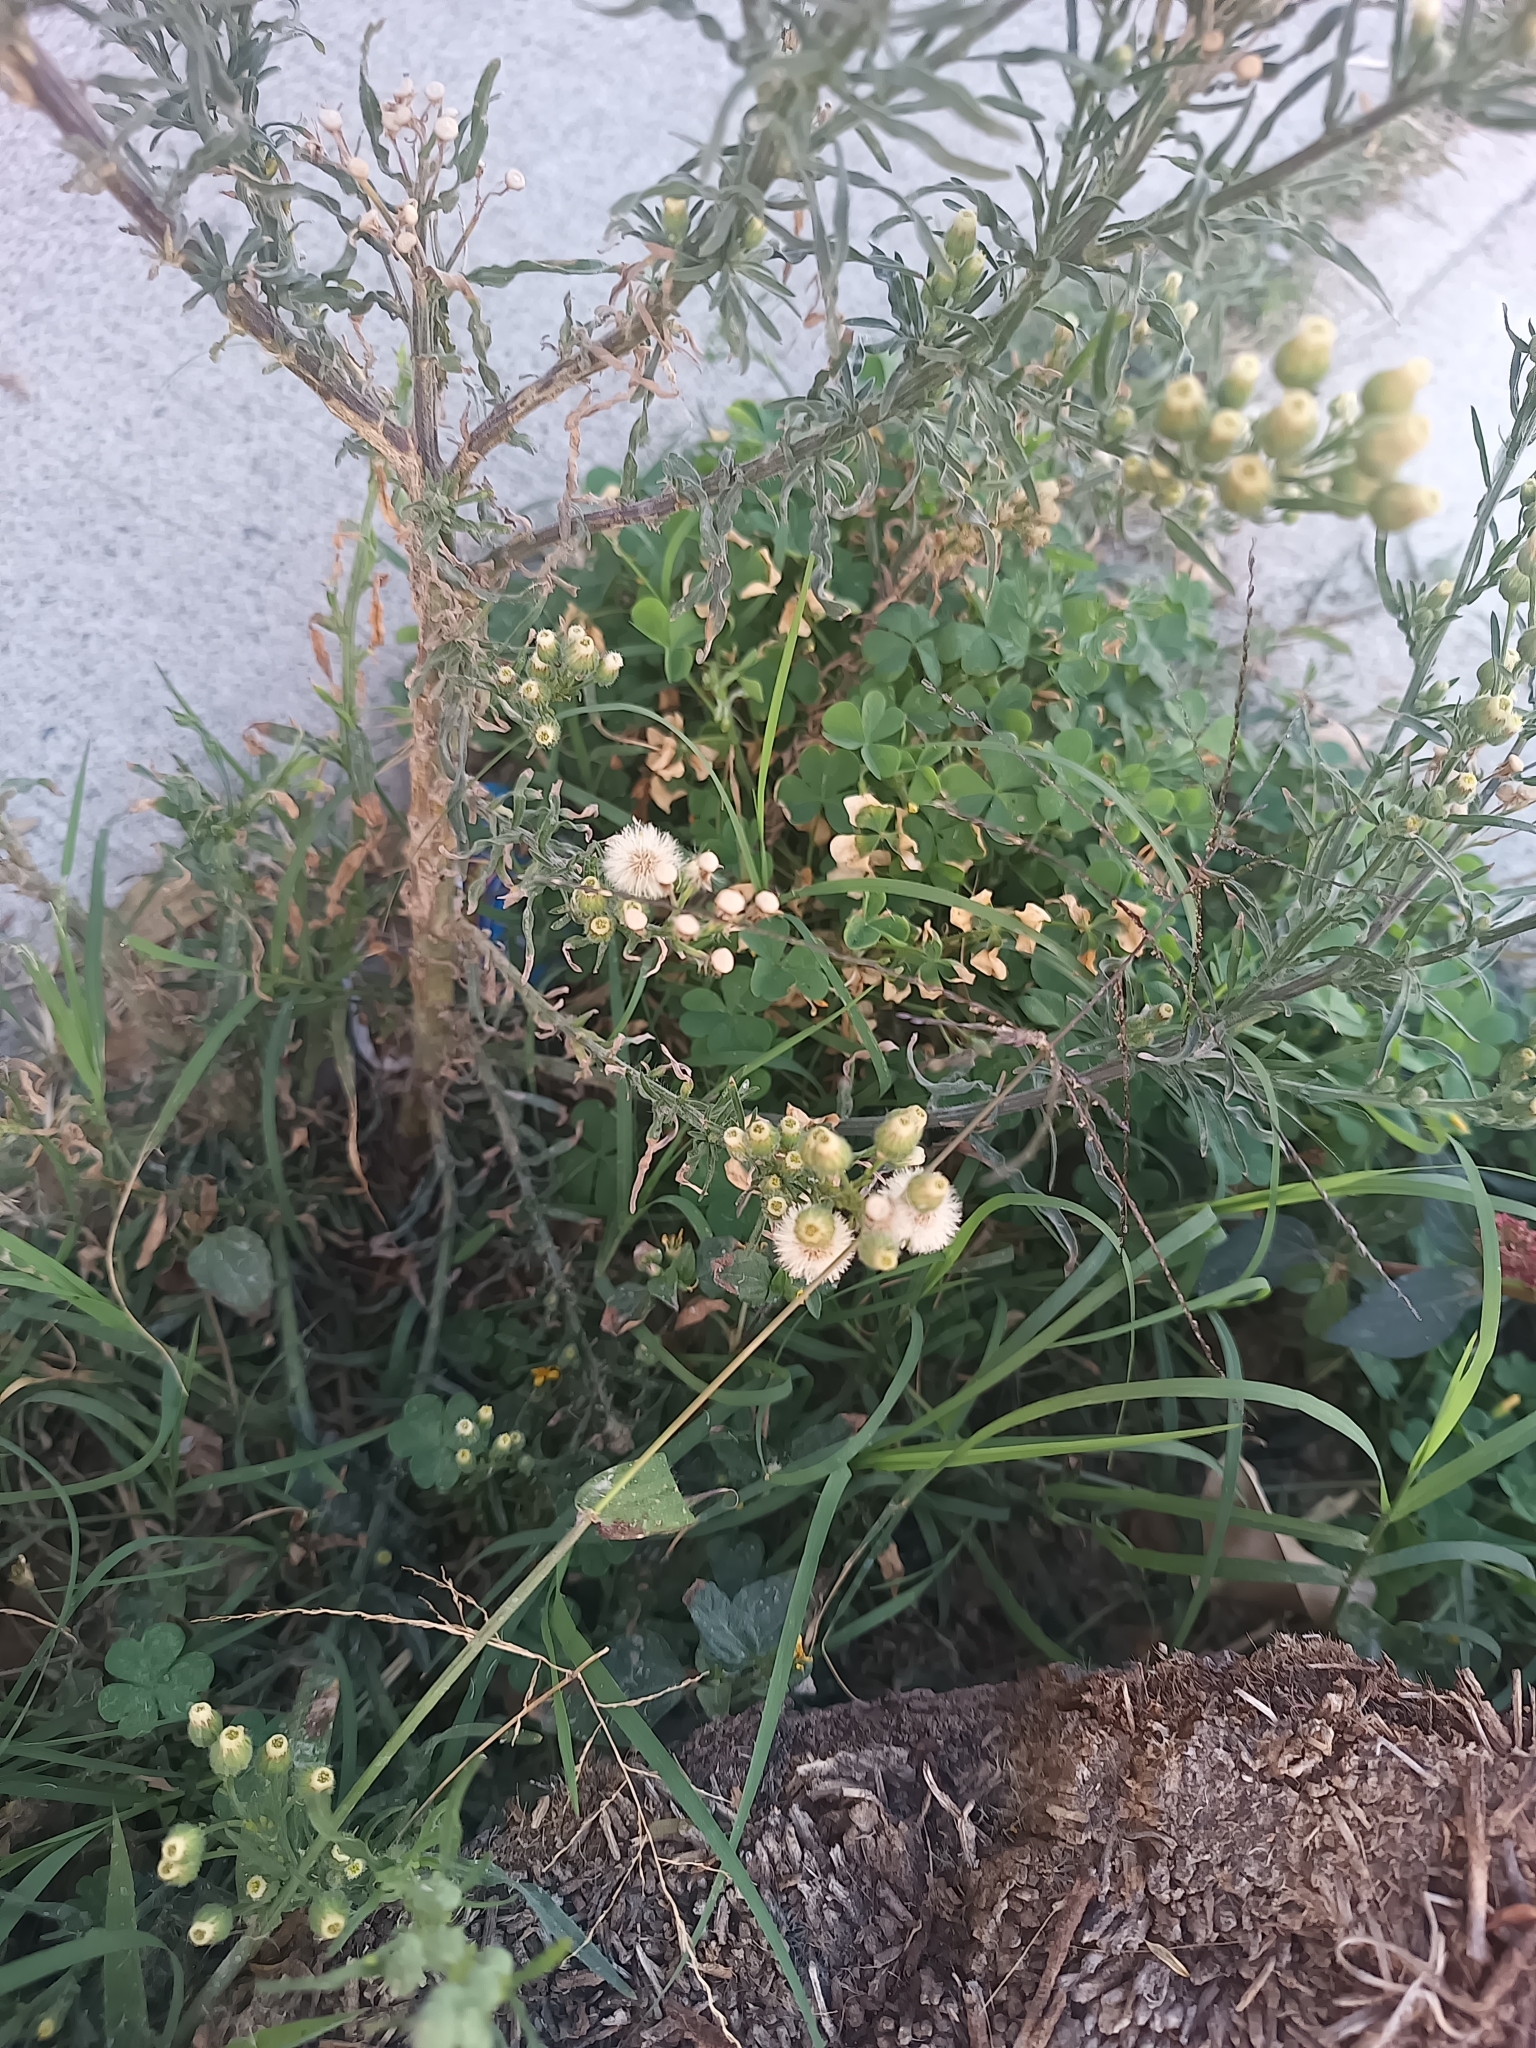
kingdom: Plantae
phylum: Tracheophyta
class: Magnoliopsida
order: Asterales
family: Asteraceae
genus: Erigeron
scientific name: Erigeron bonariensis
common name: Argentine fleabane
